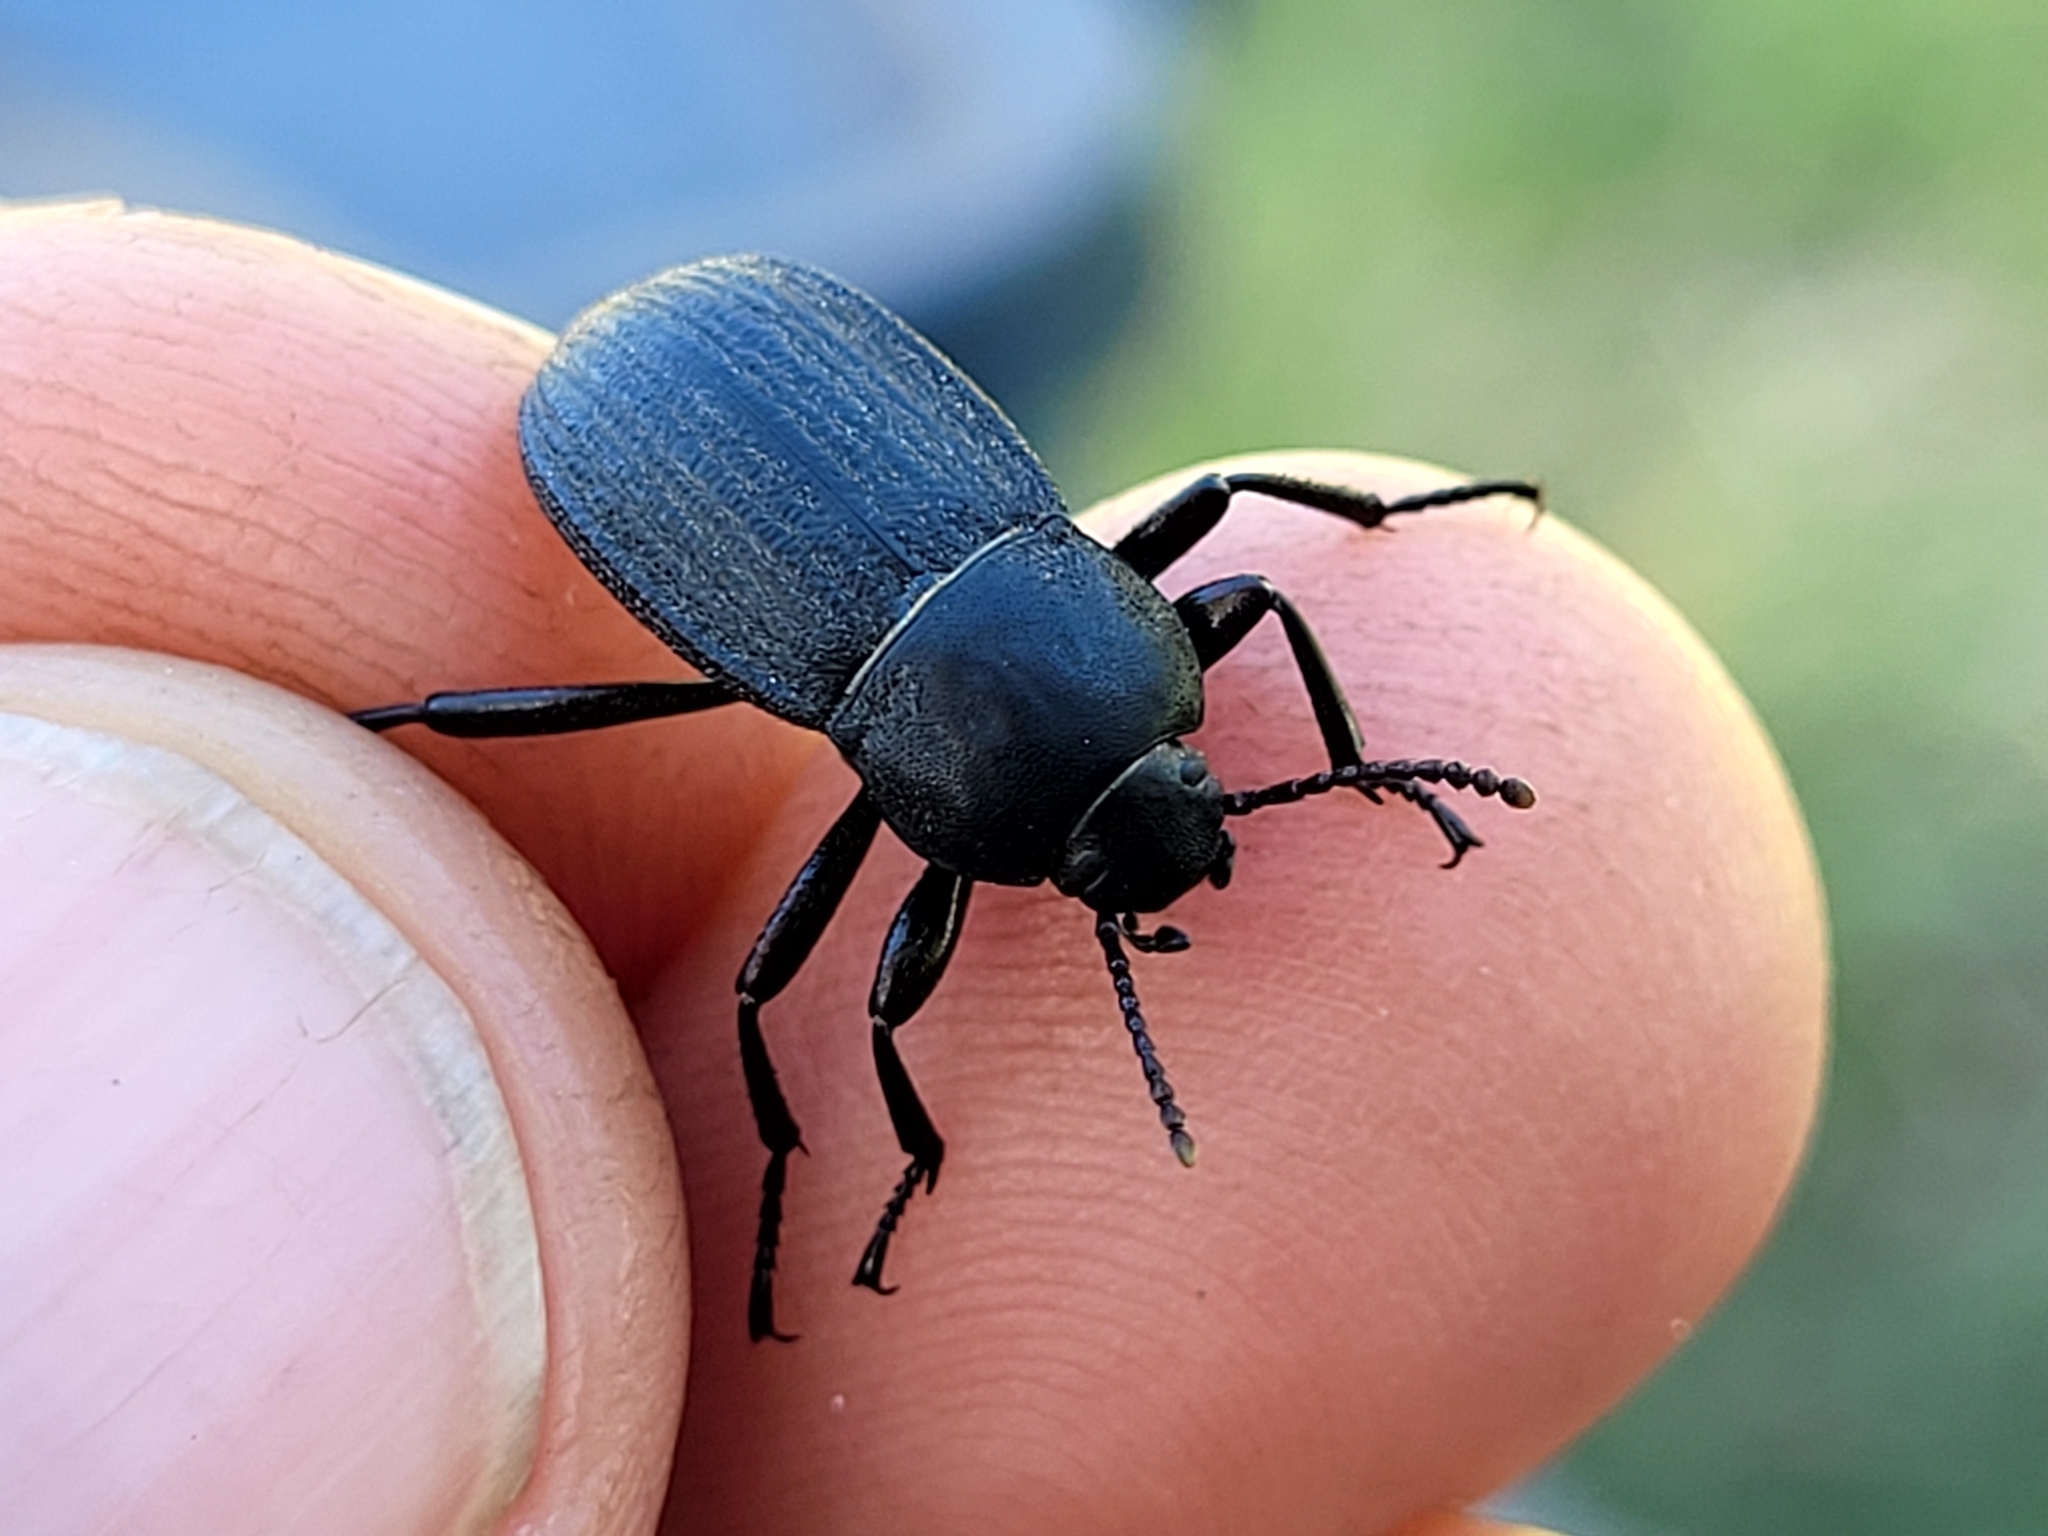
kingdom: Animalia
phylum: Arthropoda
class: Insecta
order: Coleoptera
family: Tenebrionidae
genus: Eleodes
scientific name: Eleodes tricostata
